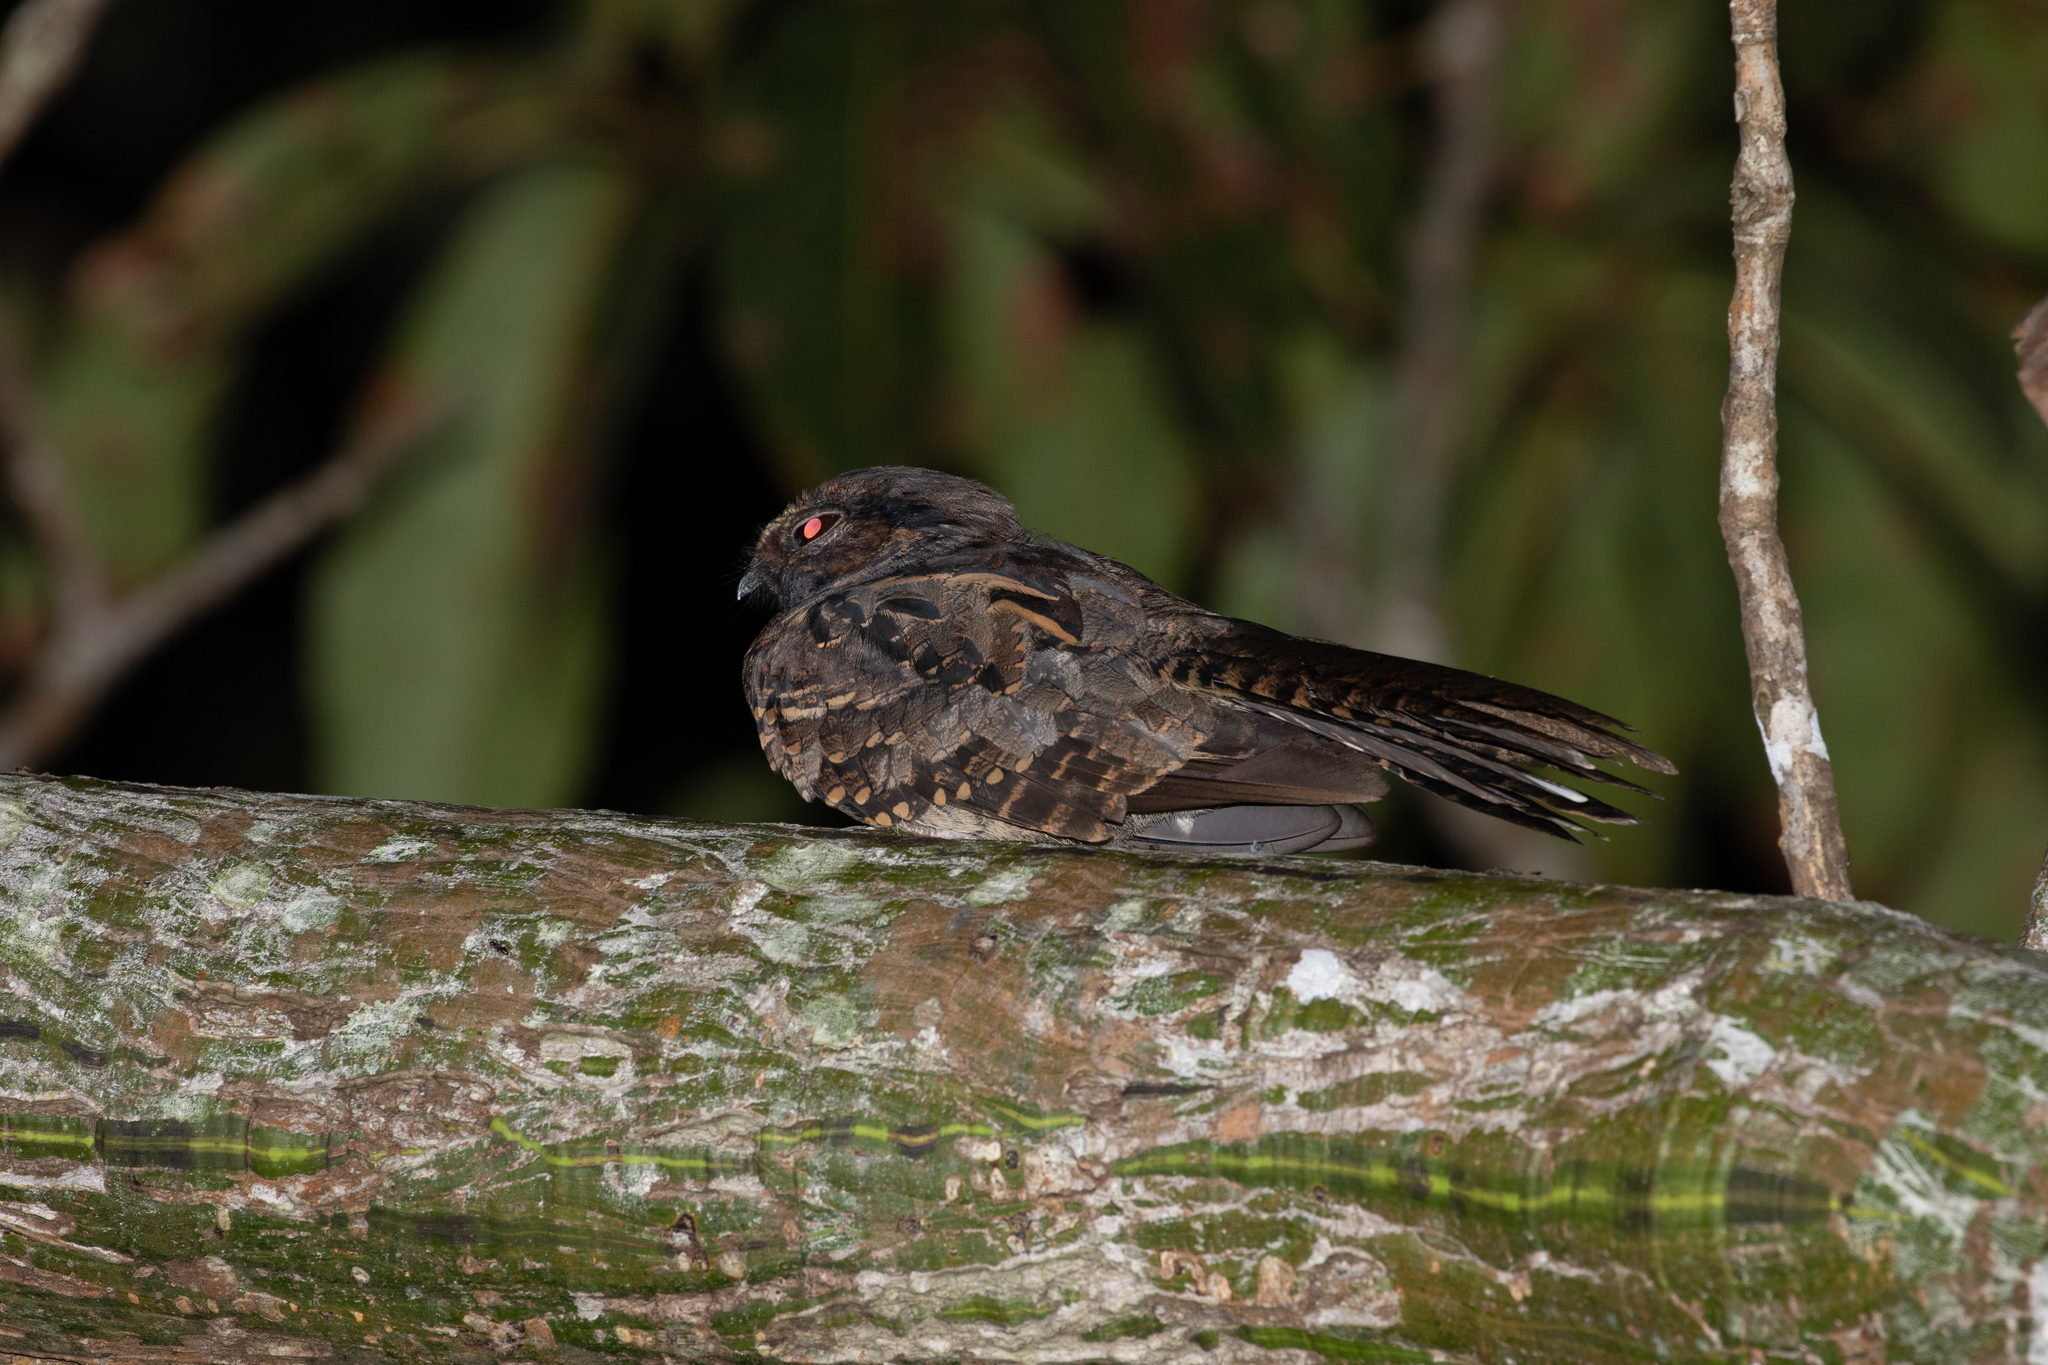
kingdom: Animalia
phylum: Chordata
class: Aves
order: Caprimulgiformes
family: Caprimulgidae
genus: Nyctidromus
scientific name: Nyctidromus albicollis
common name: Pauraque
